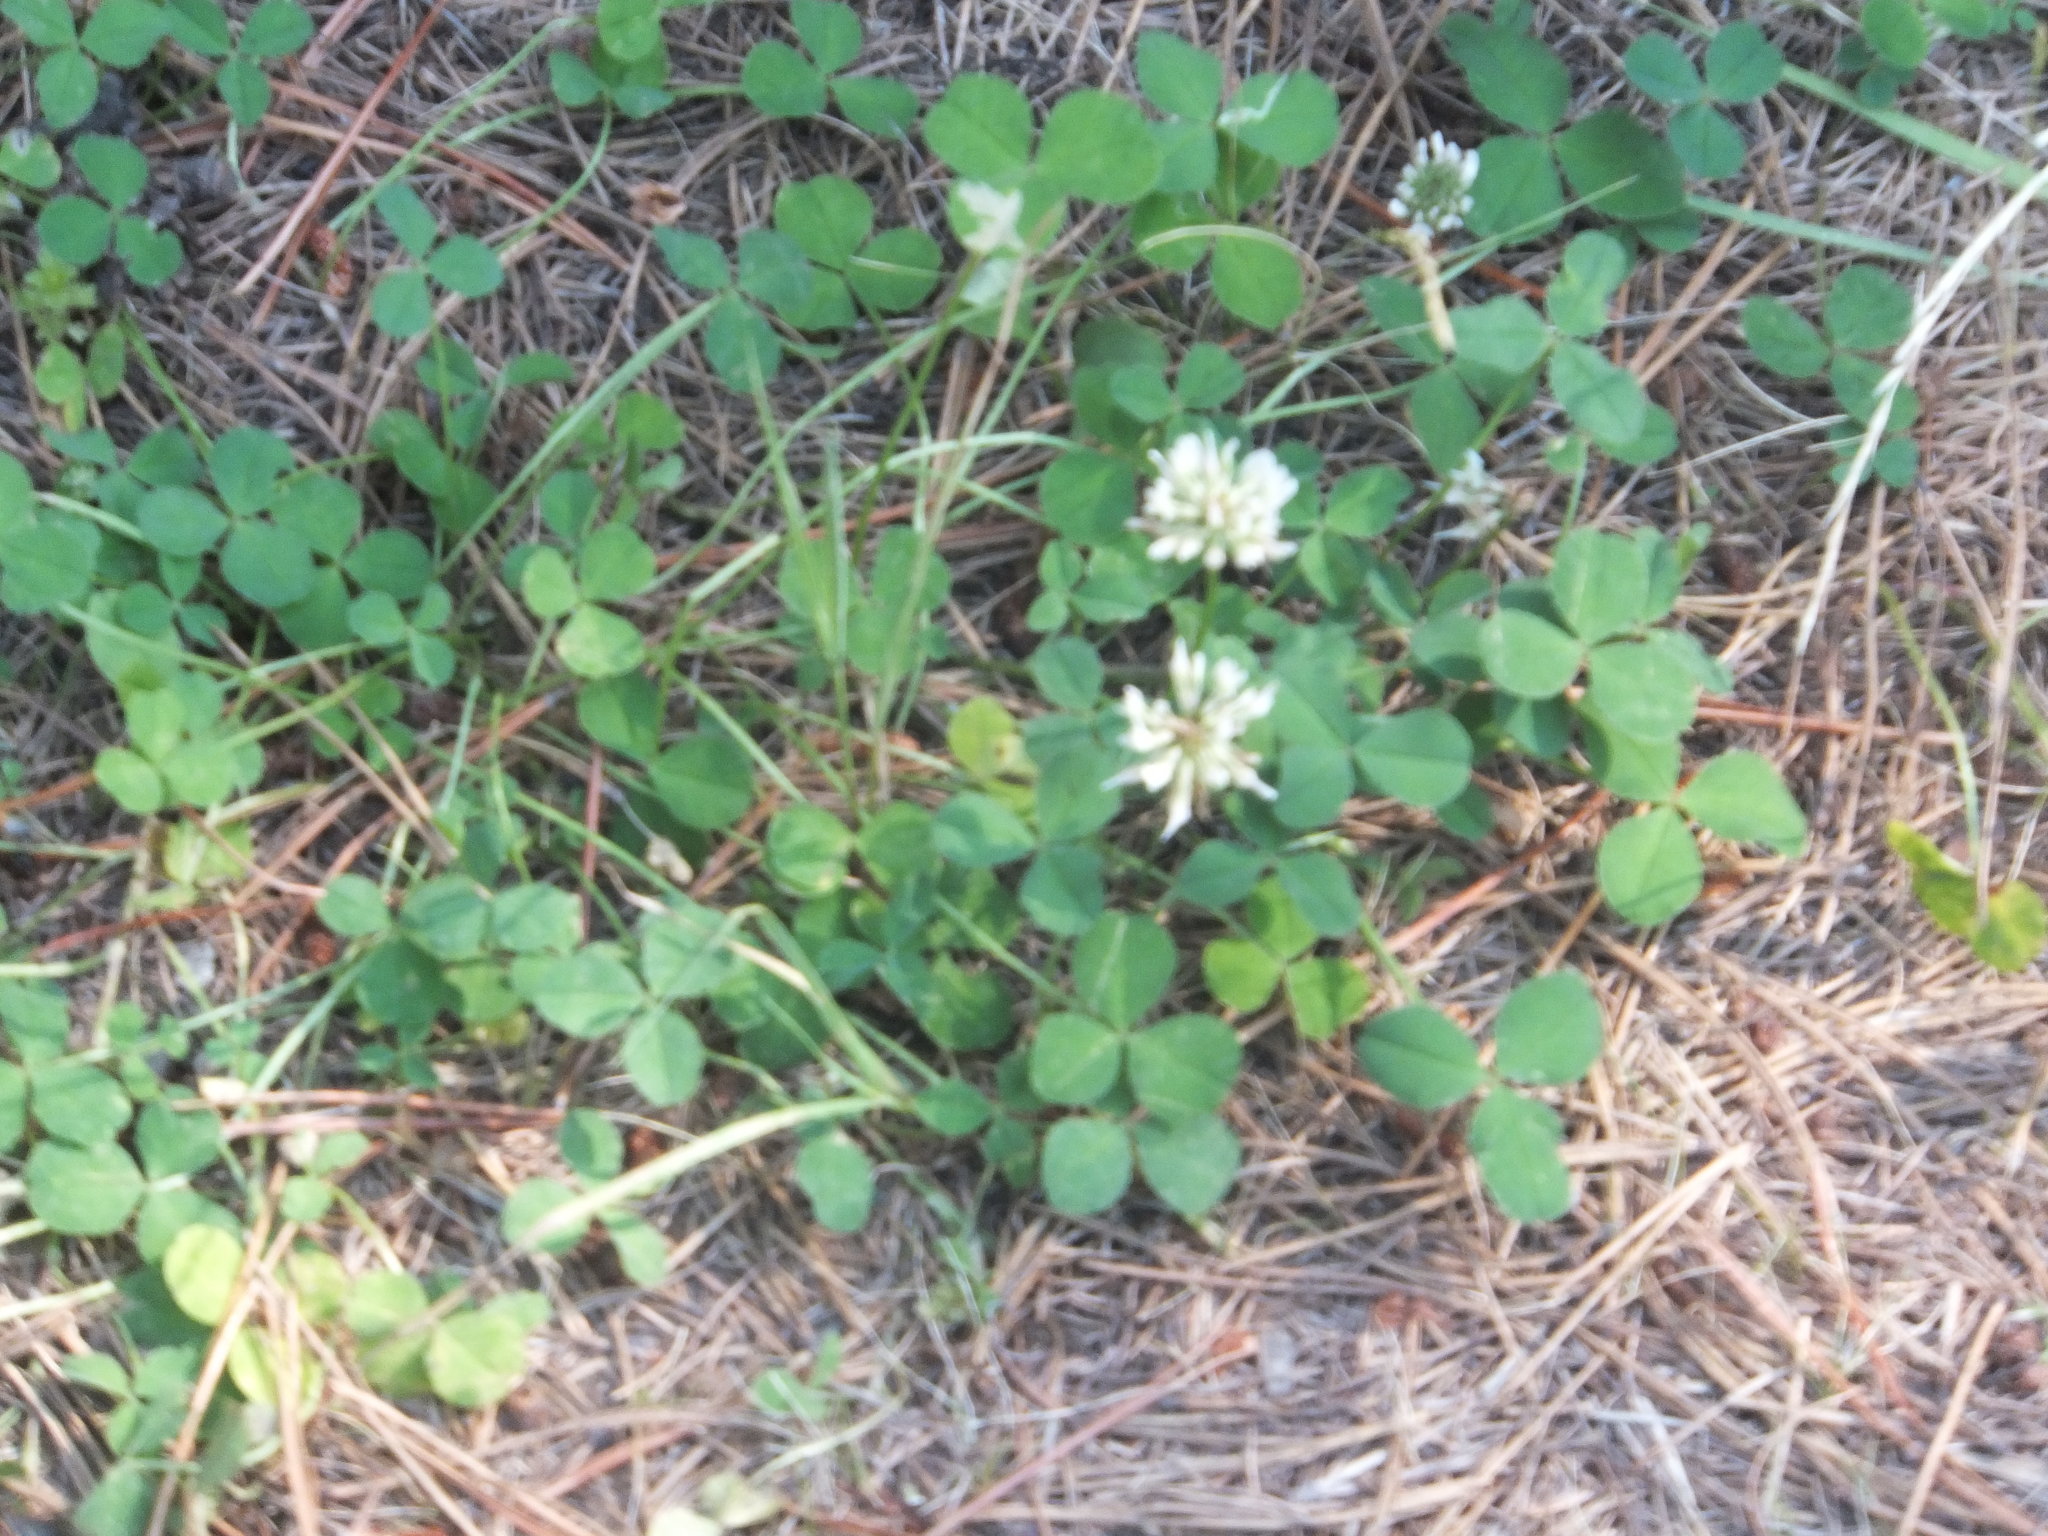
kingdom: Plantae
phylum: Tracheophyta
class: Magnoliopsida
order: Fabales
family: Fabaceae
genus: Trifolium
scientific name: Trifolium repens
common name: White clover
